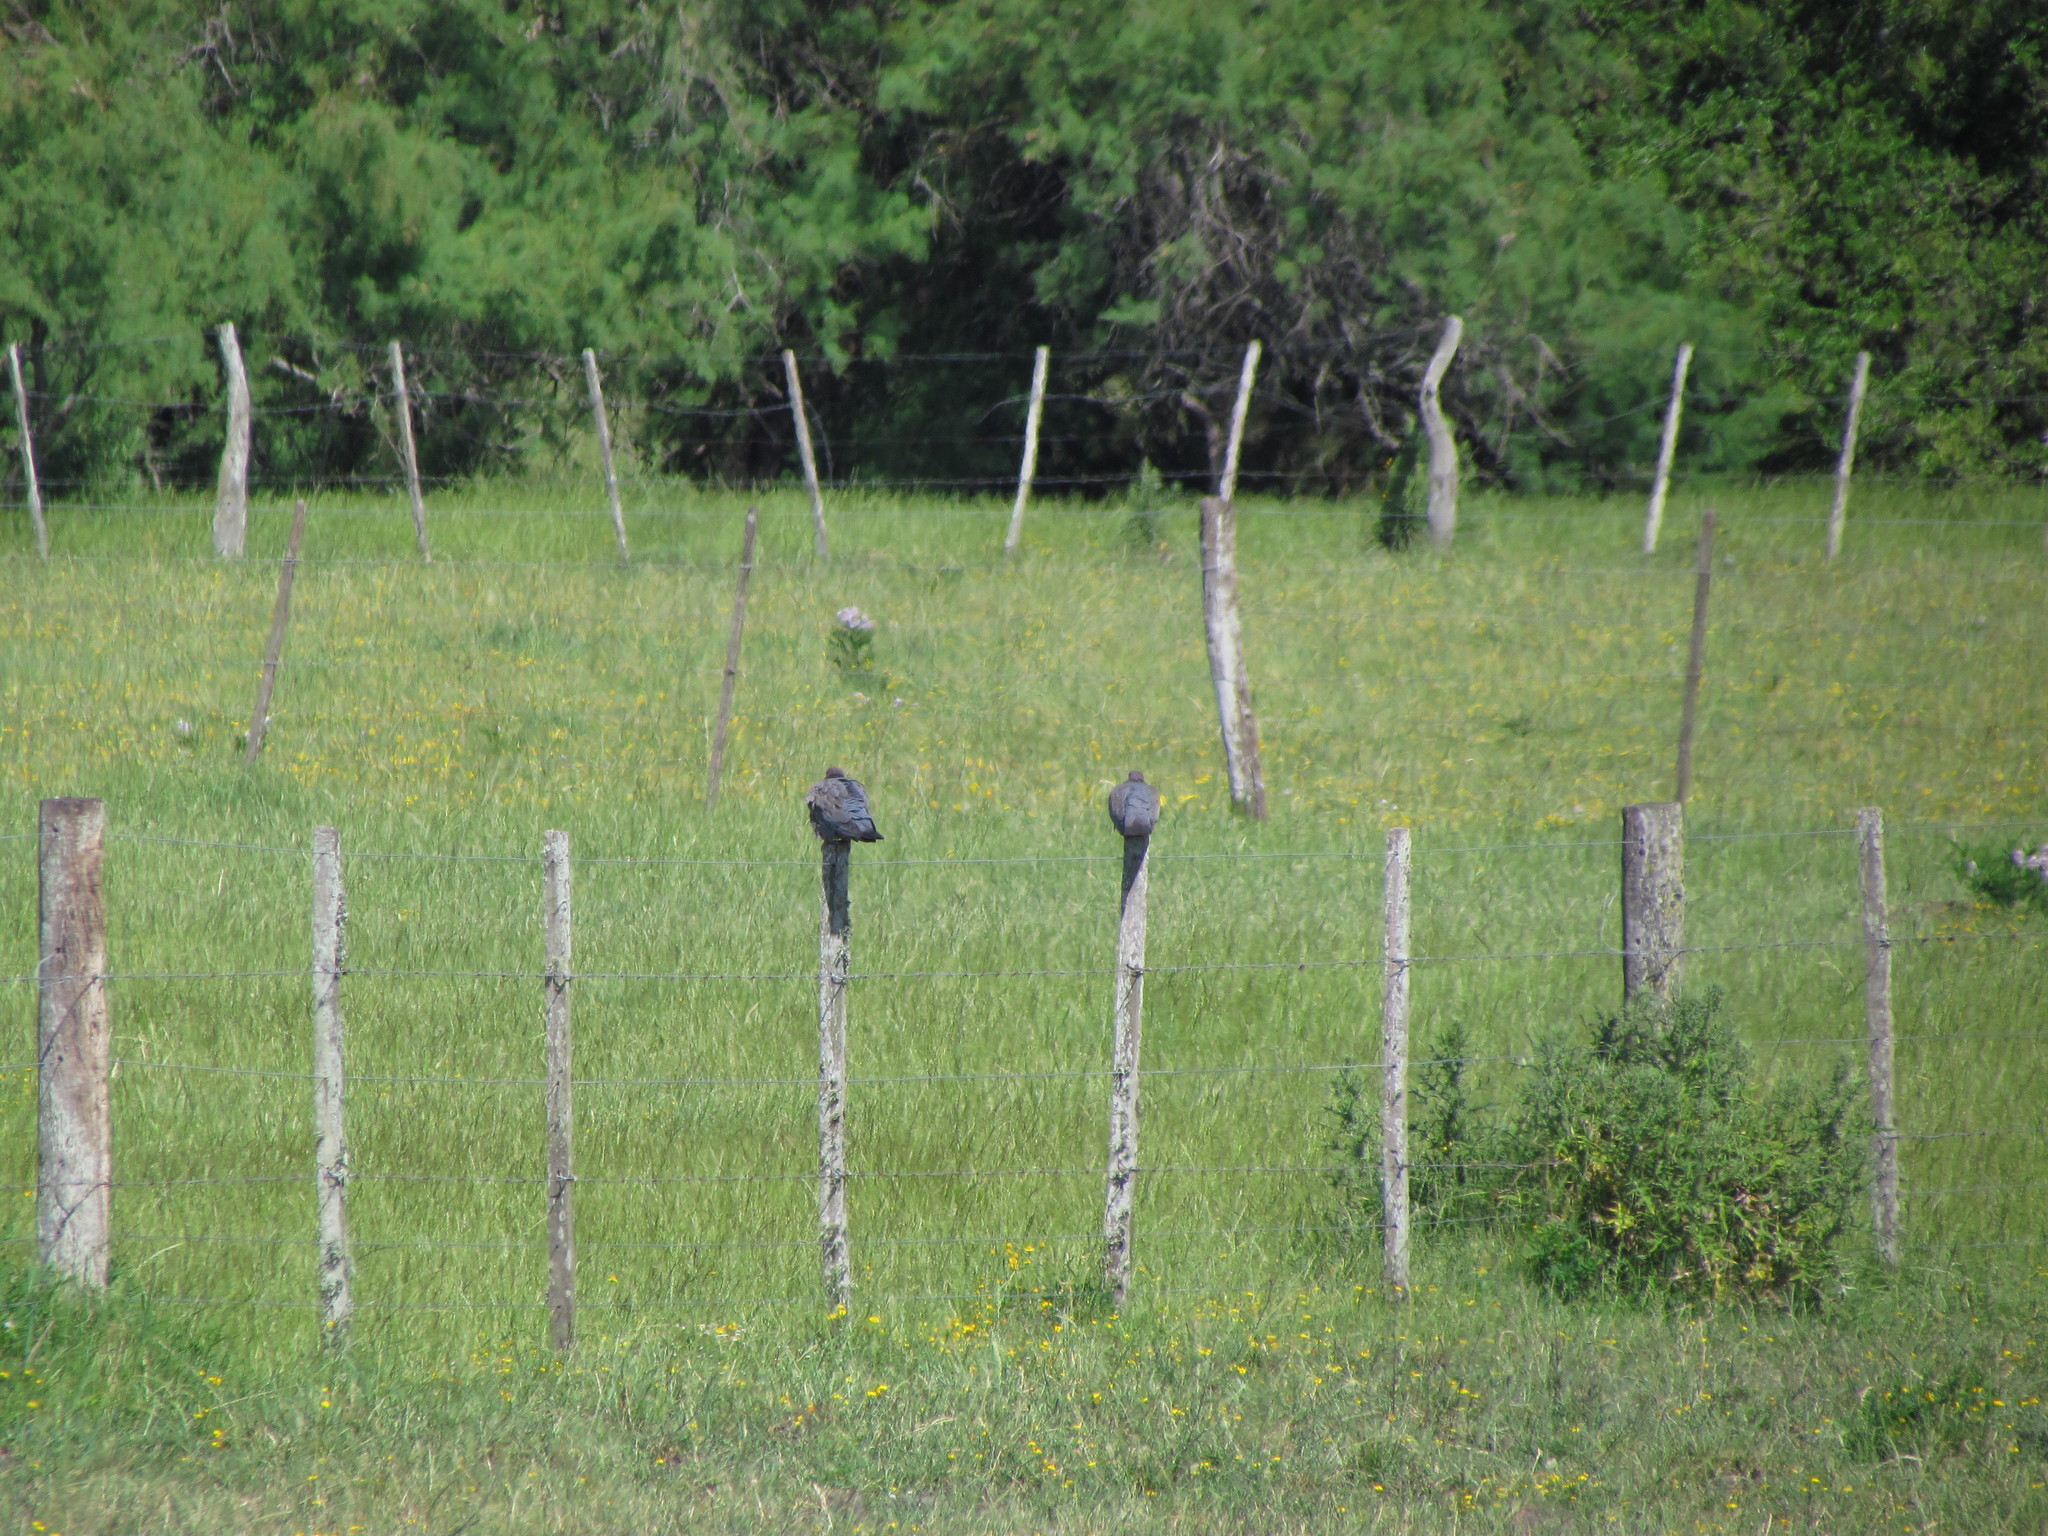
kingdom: Animalia
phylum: Chordata
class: Aves
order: Columbiformes
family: Columbidae
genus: Patagioenas
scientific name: Patagioenas picazuro
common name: Picazuro pigeon
